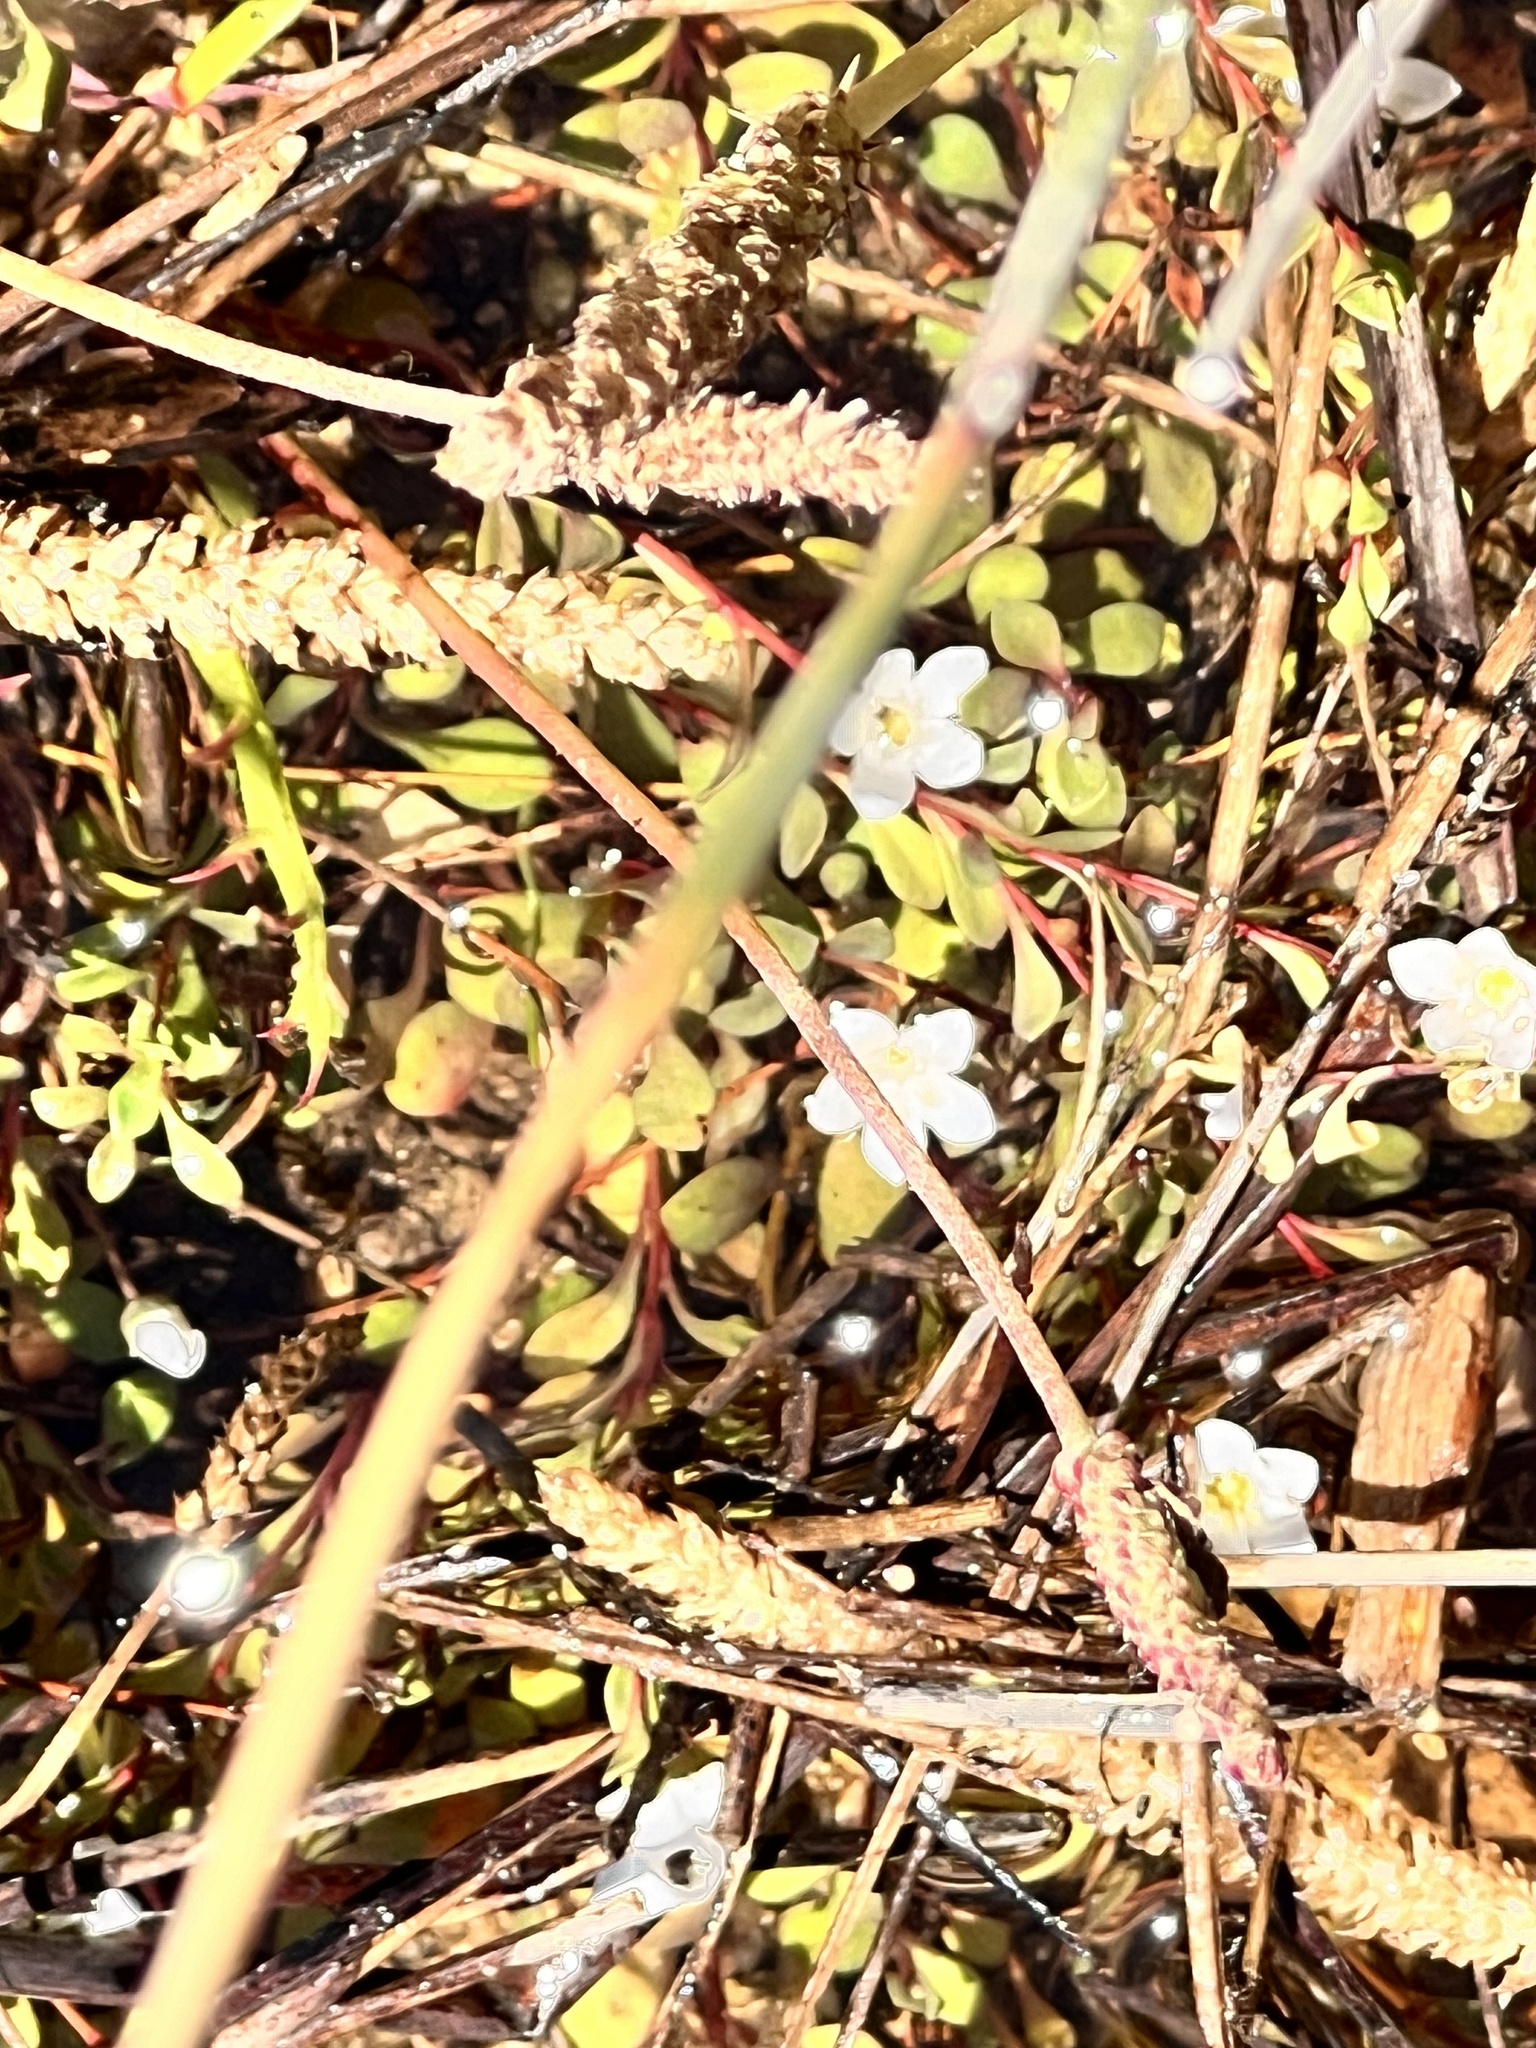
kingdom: Plantae
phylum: Tracheophyta
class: Magnoliopsida
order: Ericales
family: Primulaceae
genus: Samolus
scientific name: Samolus repens
